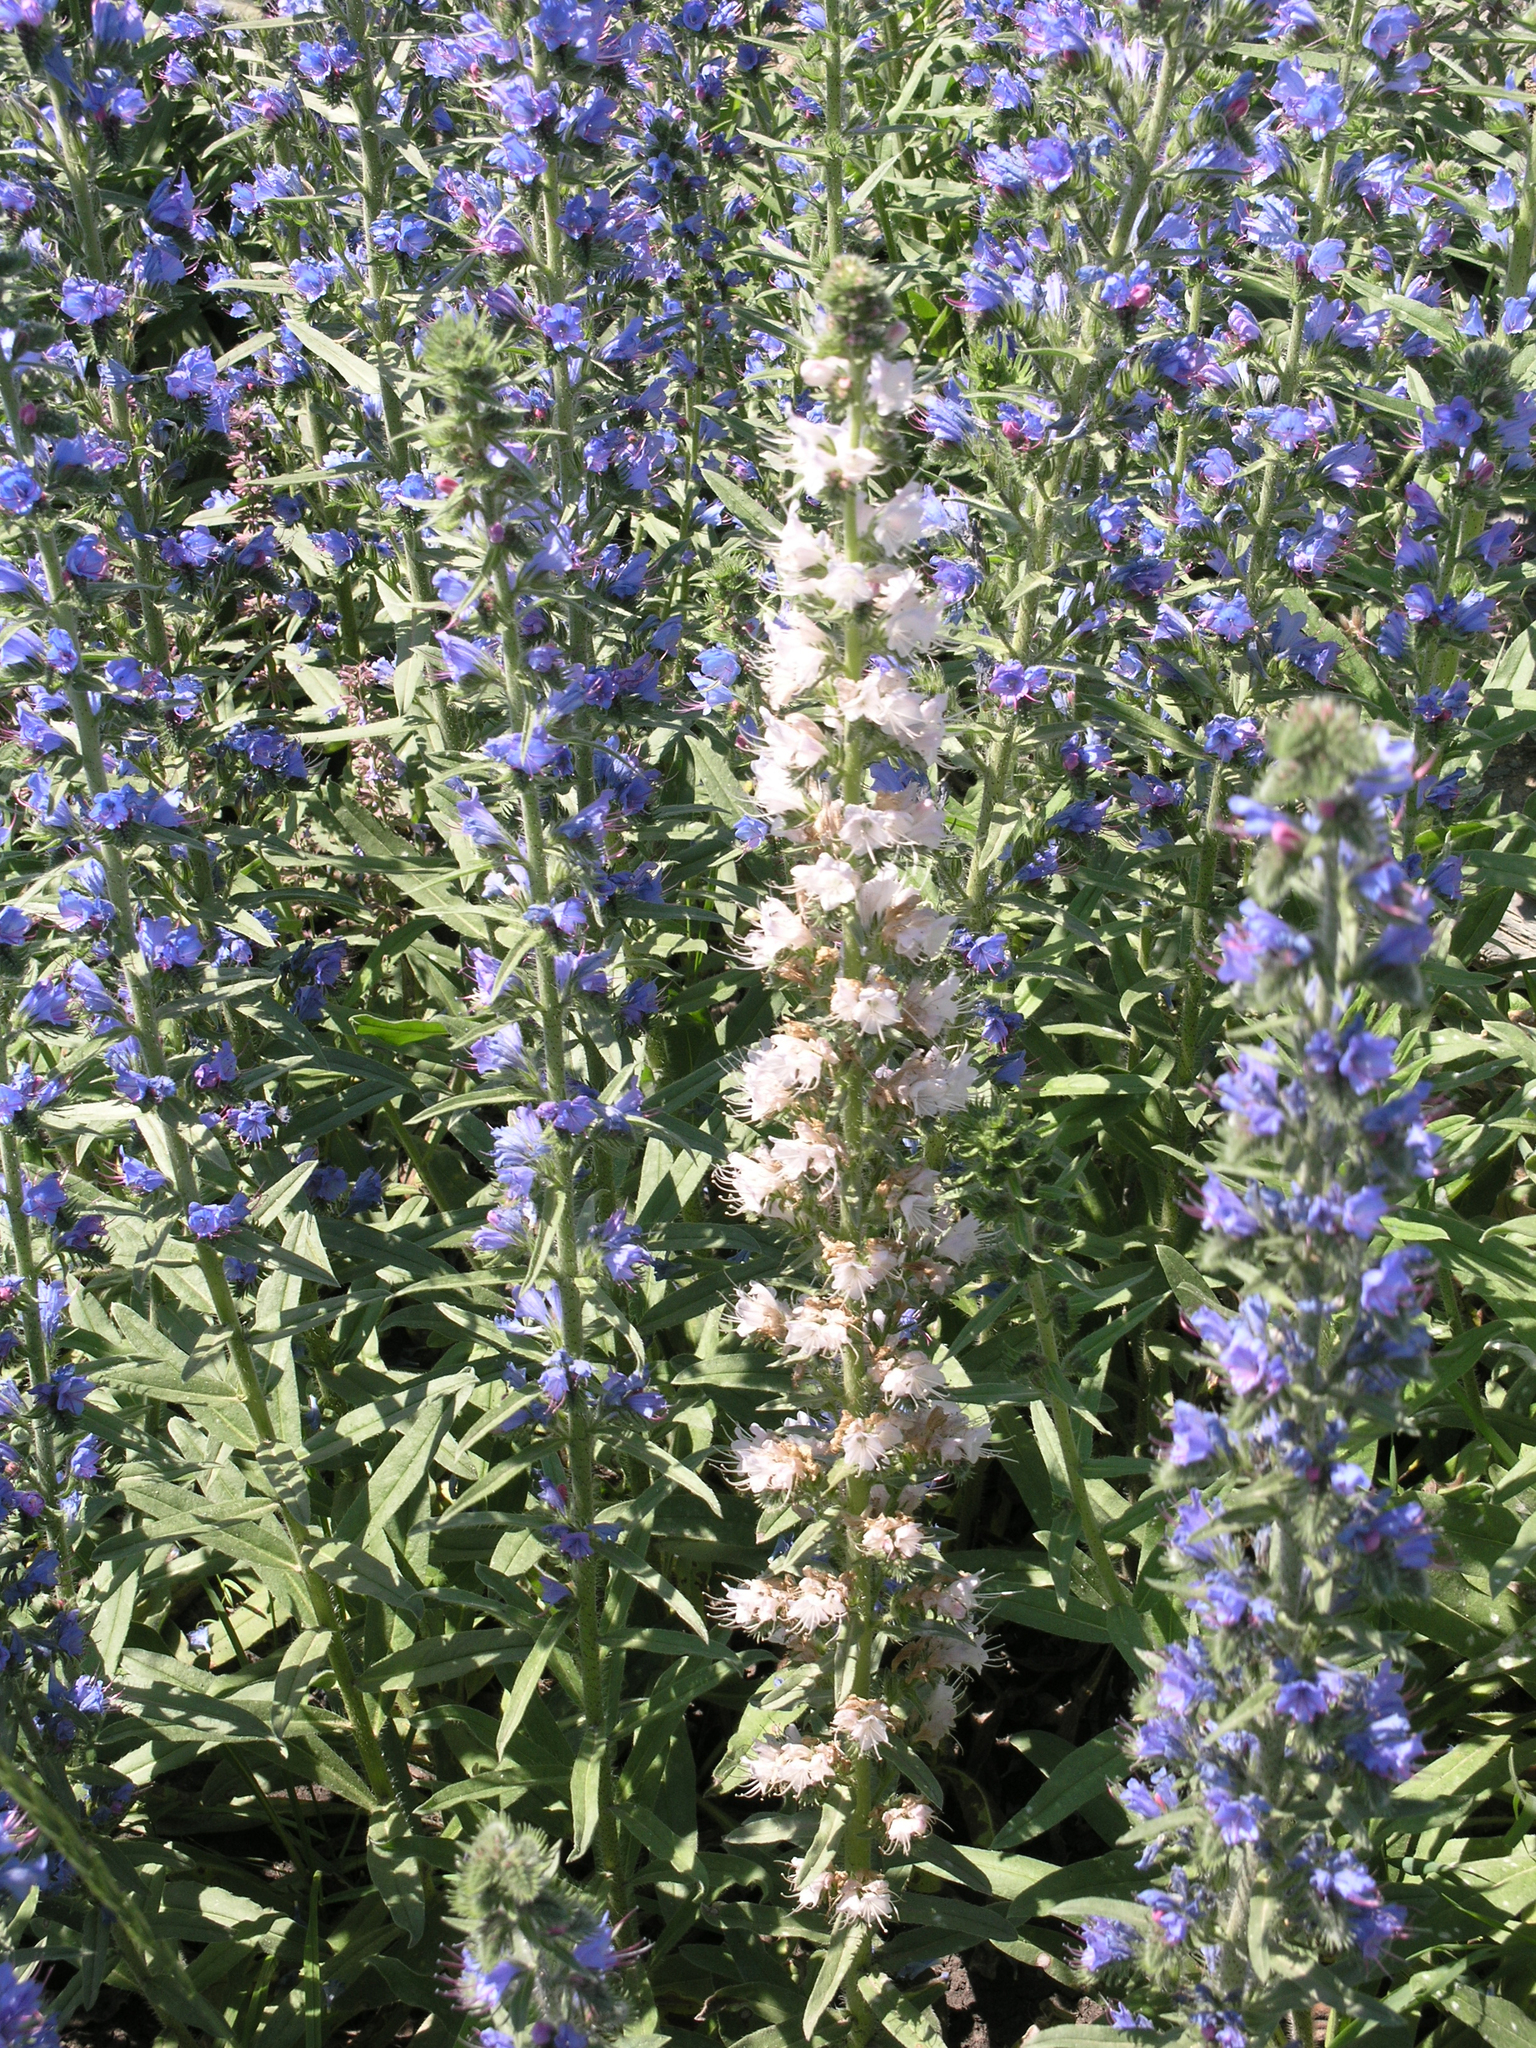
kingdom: Plantae
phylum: Tracheophyta
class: Magnoliopsida
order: Boraginales
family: Boraginaceae
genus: Echium
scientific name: Echium vulgare
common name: Common viper's bugloss
